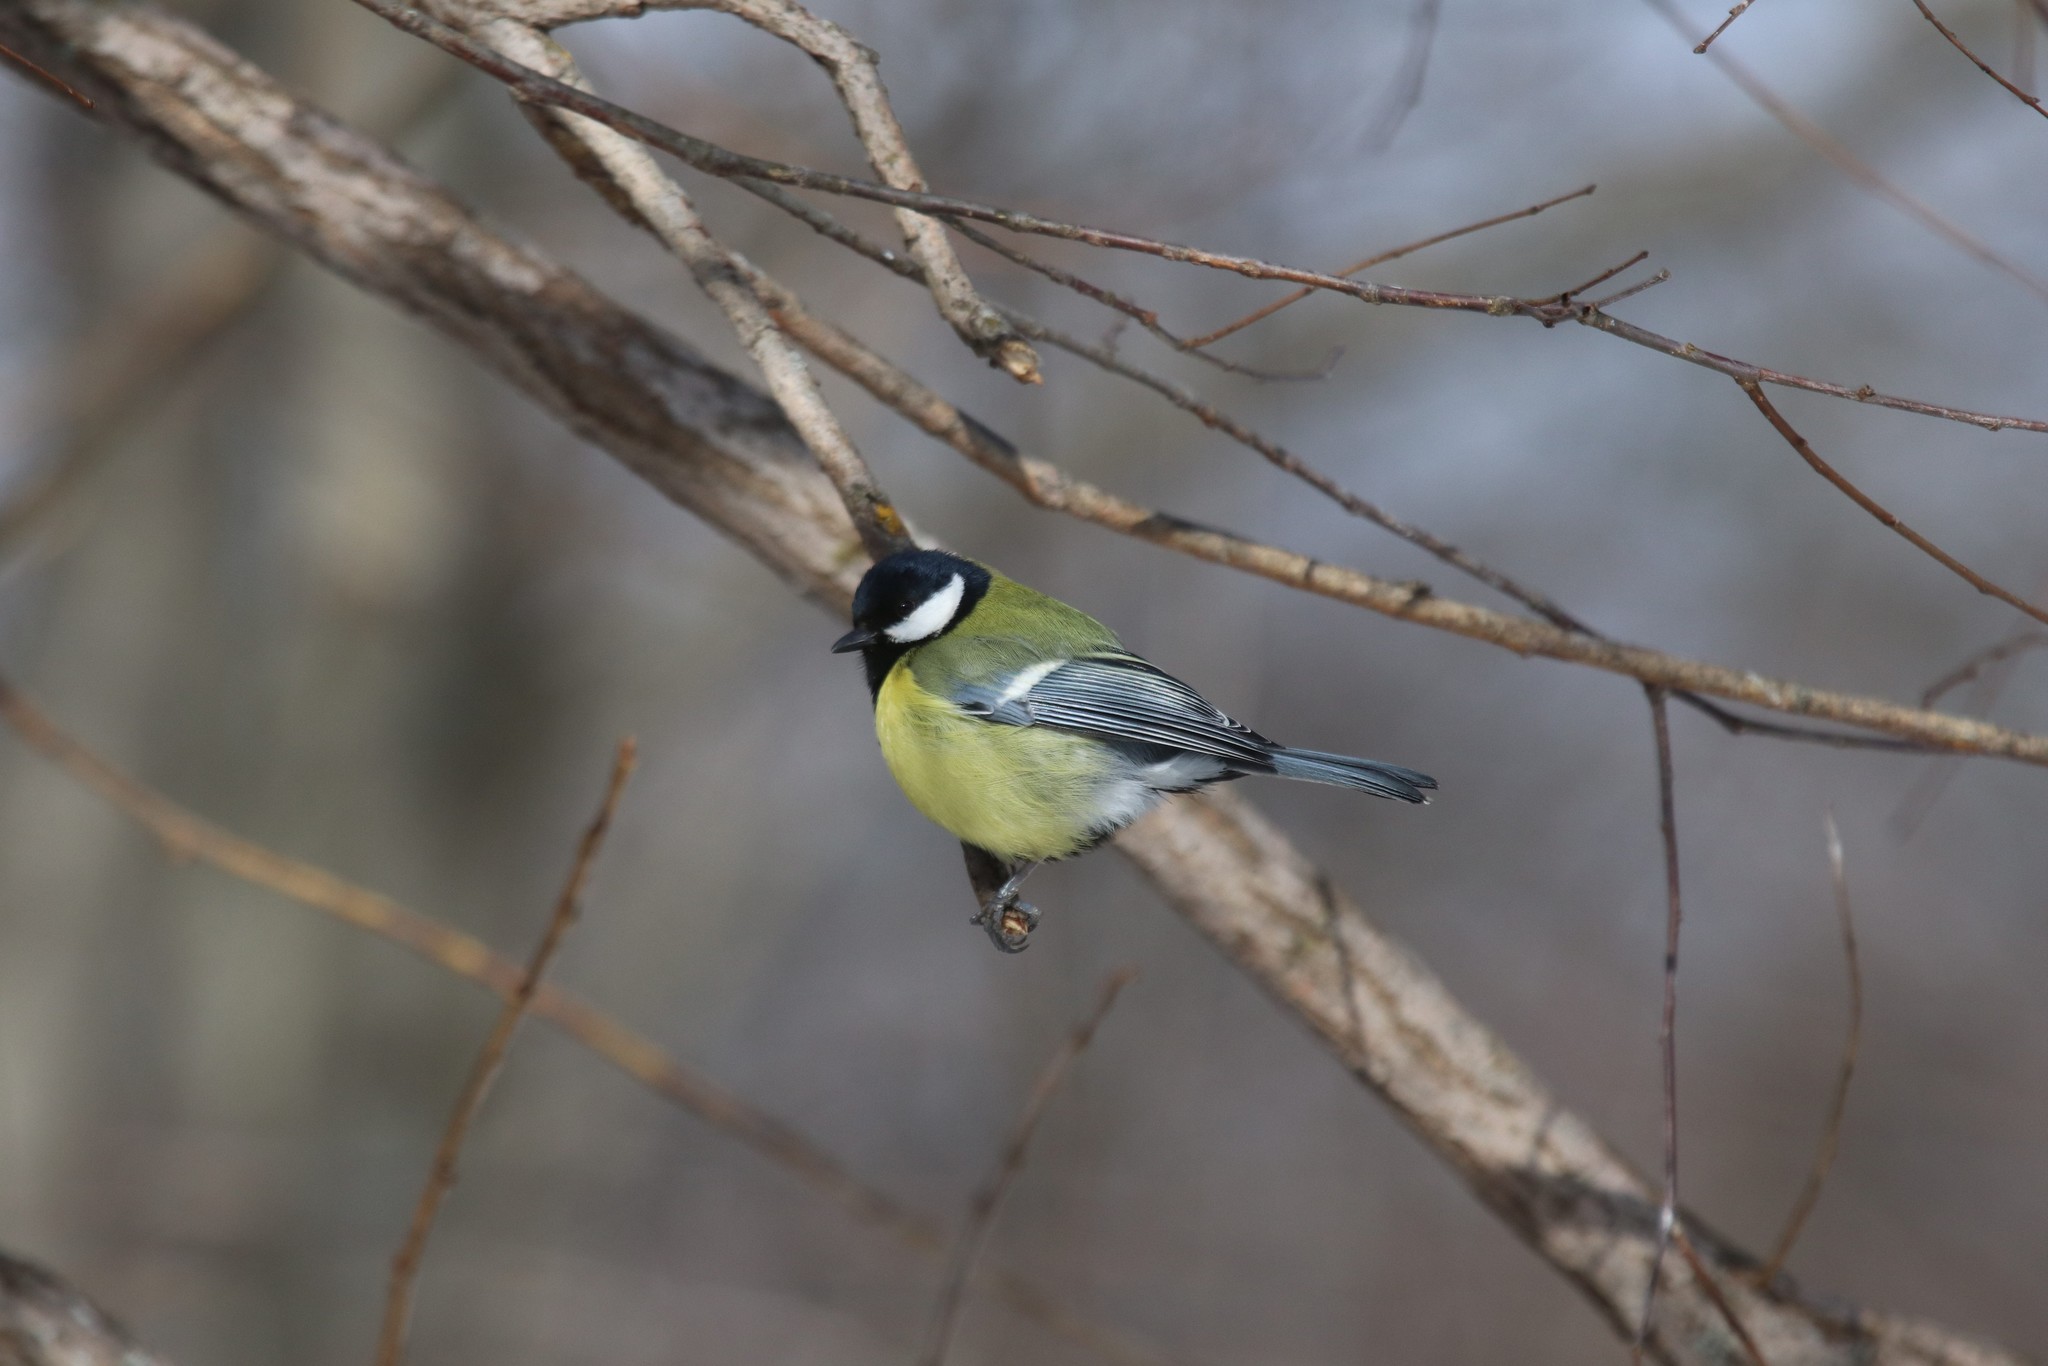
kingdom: Animalia
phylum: Chordata
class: Aves
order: Passeriformes
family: Paridae
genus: Parus
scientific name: Parus major
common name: Great tit
